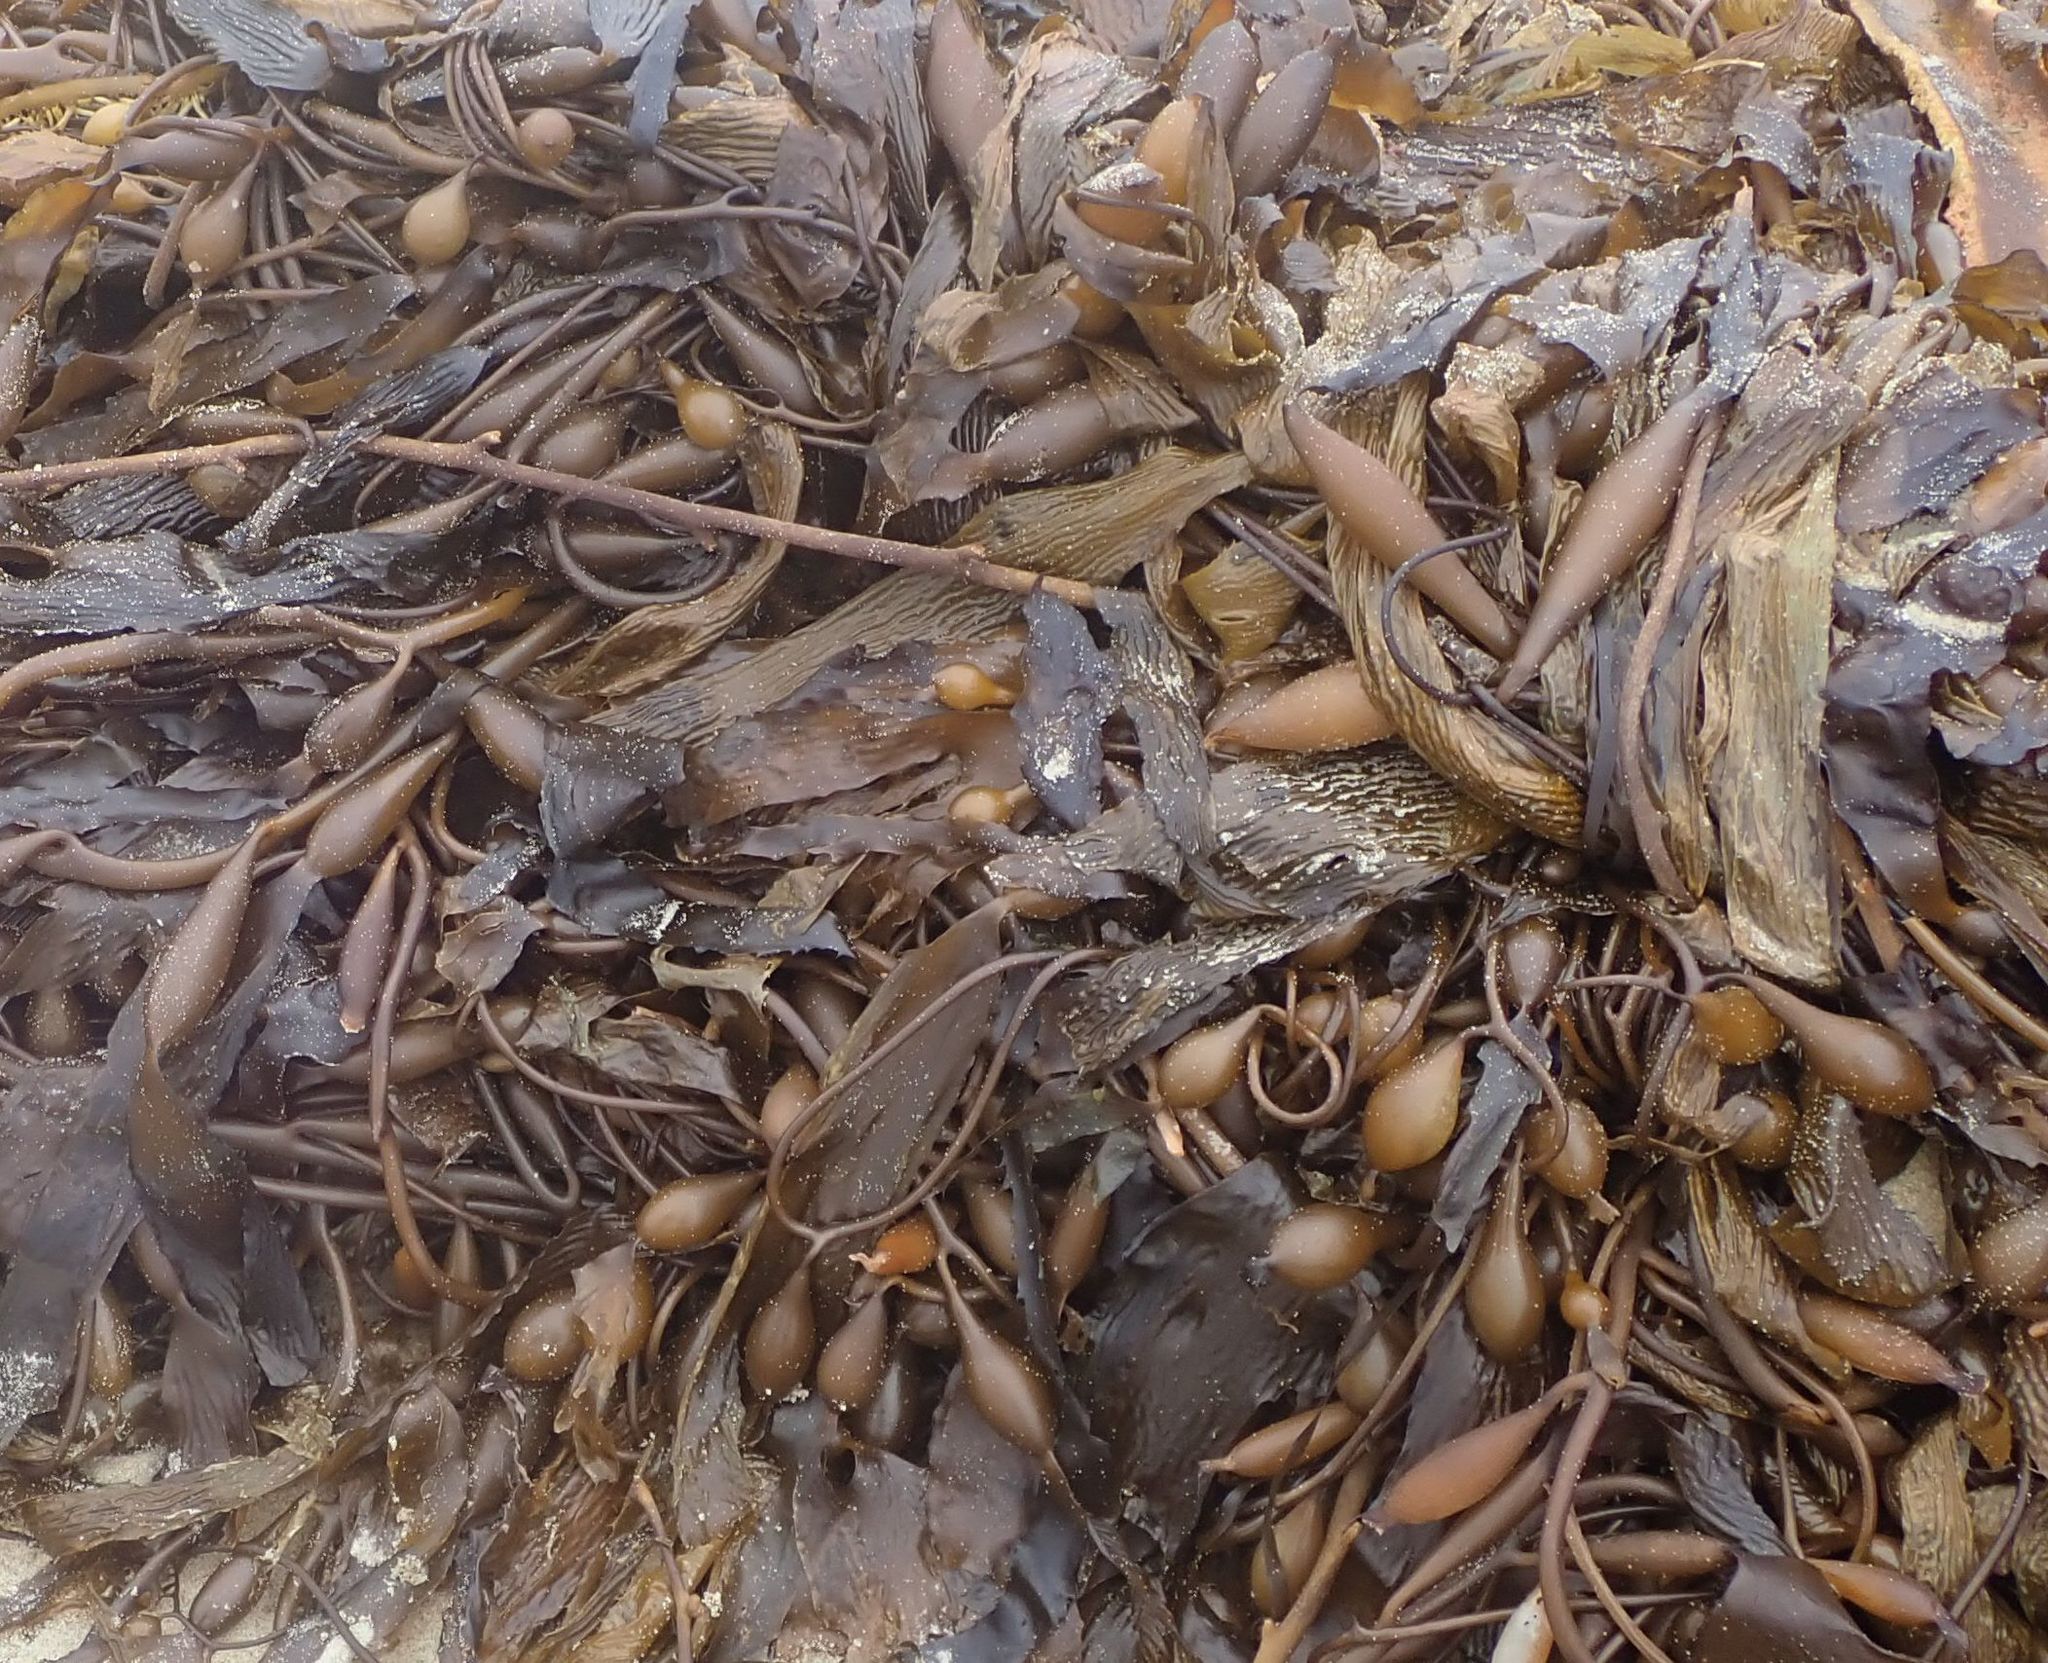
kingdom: Chromista
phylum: Ochrophyta
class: Phaeophyceae
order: Laminariales
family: Laminariaceae
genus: Macrocystis
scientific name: Macrocystis pyrifera
